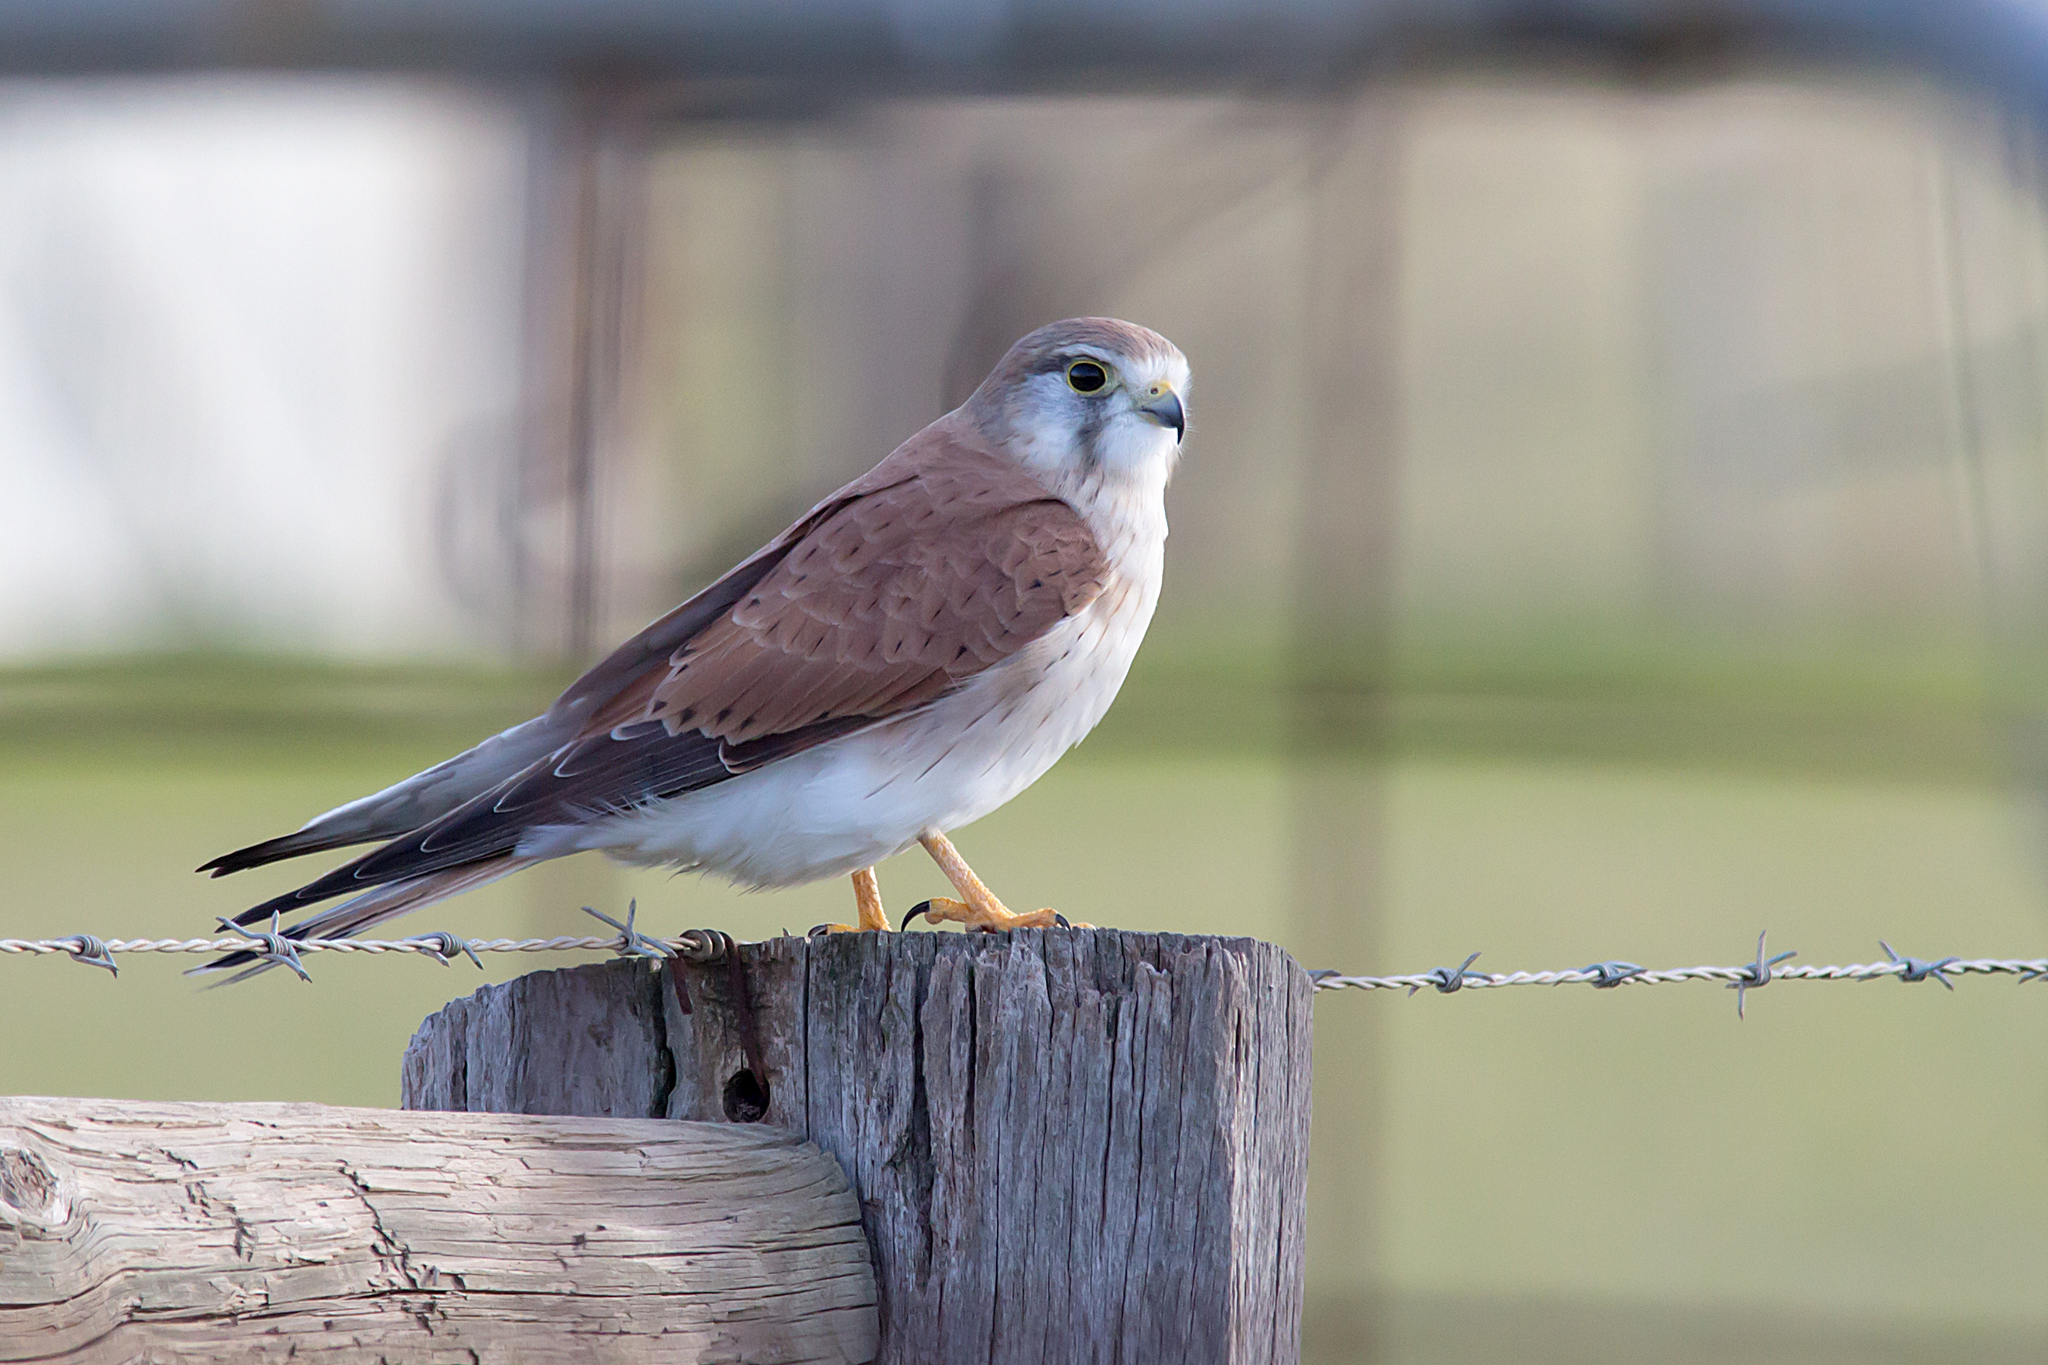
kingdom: Animalia
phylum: Chordata
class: Aves
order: Falconiformes
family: Falconidae
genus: Falco
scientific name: Falco cenchroides
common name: Nankeen kestrel
